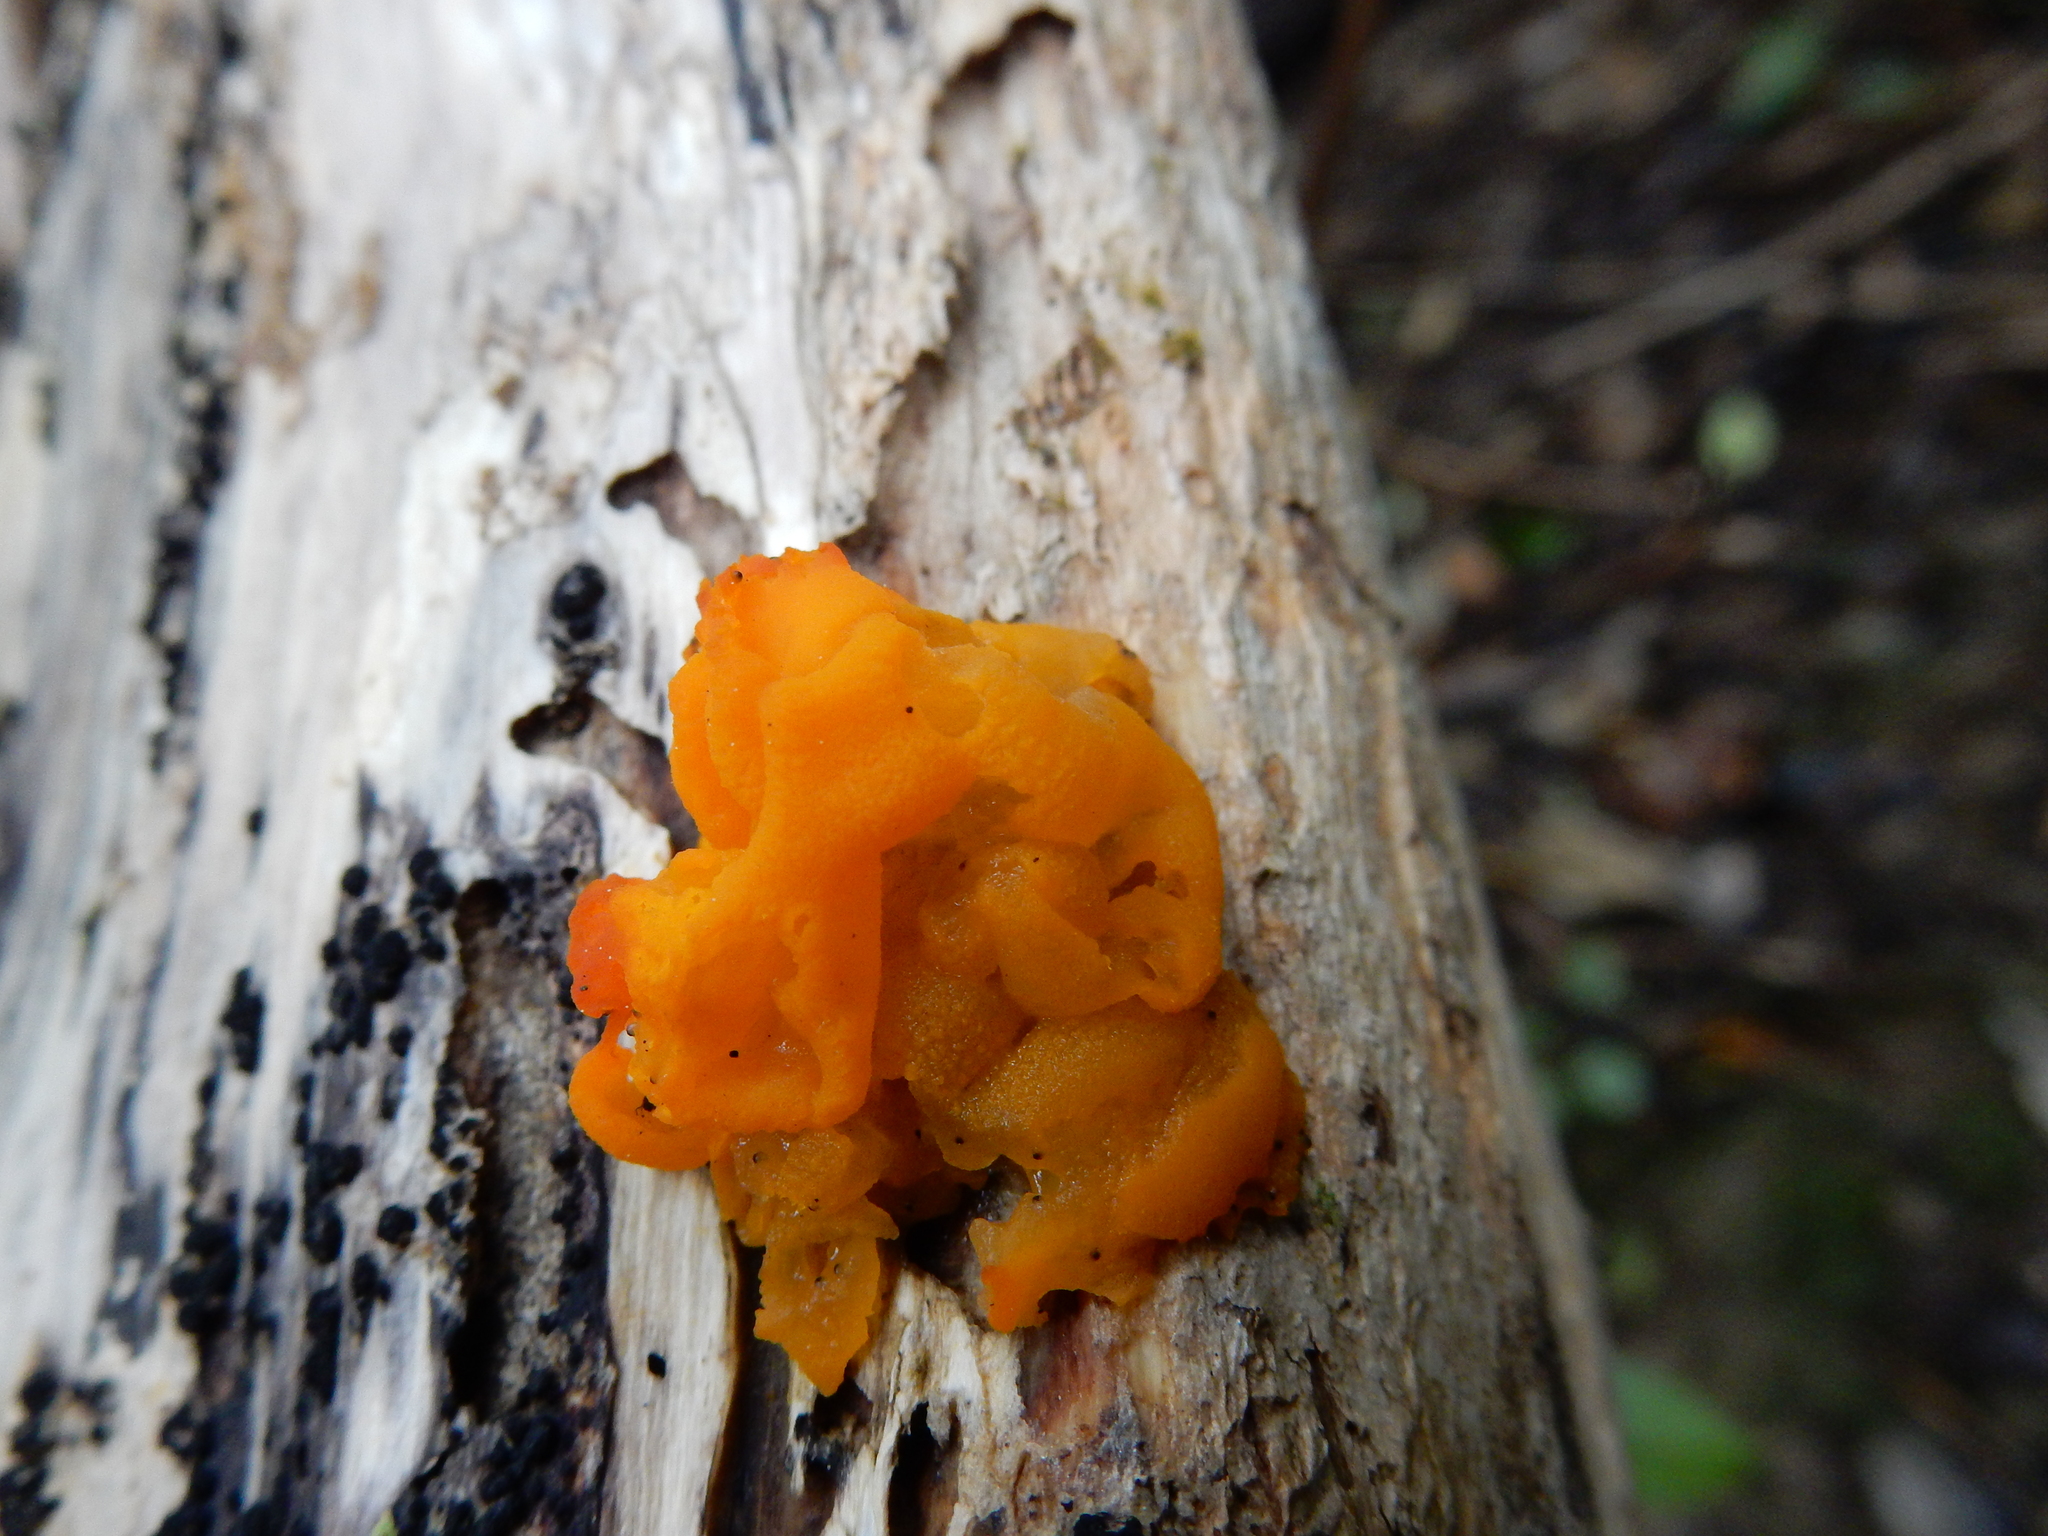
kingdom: Fungi
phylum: Basidiomycota
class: Tremellomycetes
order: Tremellales
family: Tremellaceae
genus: Tremella
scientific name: Tremella mesenterica
